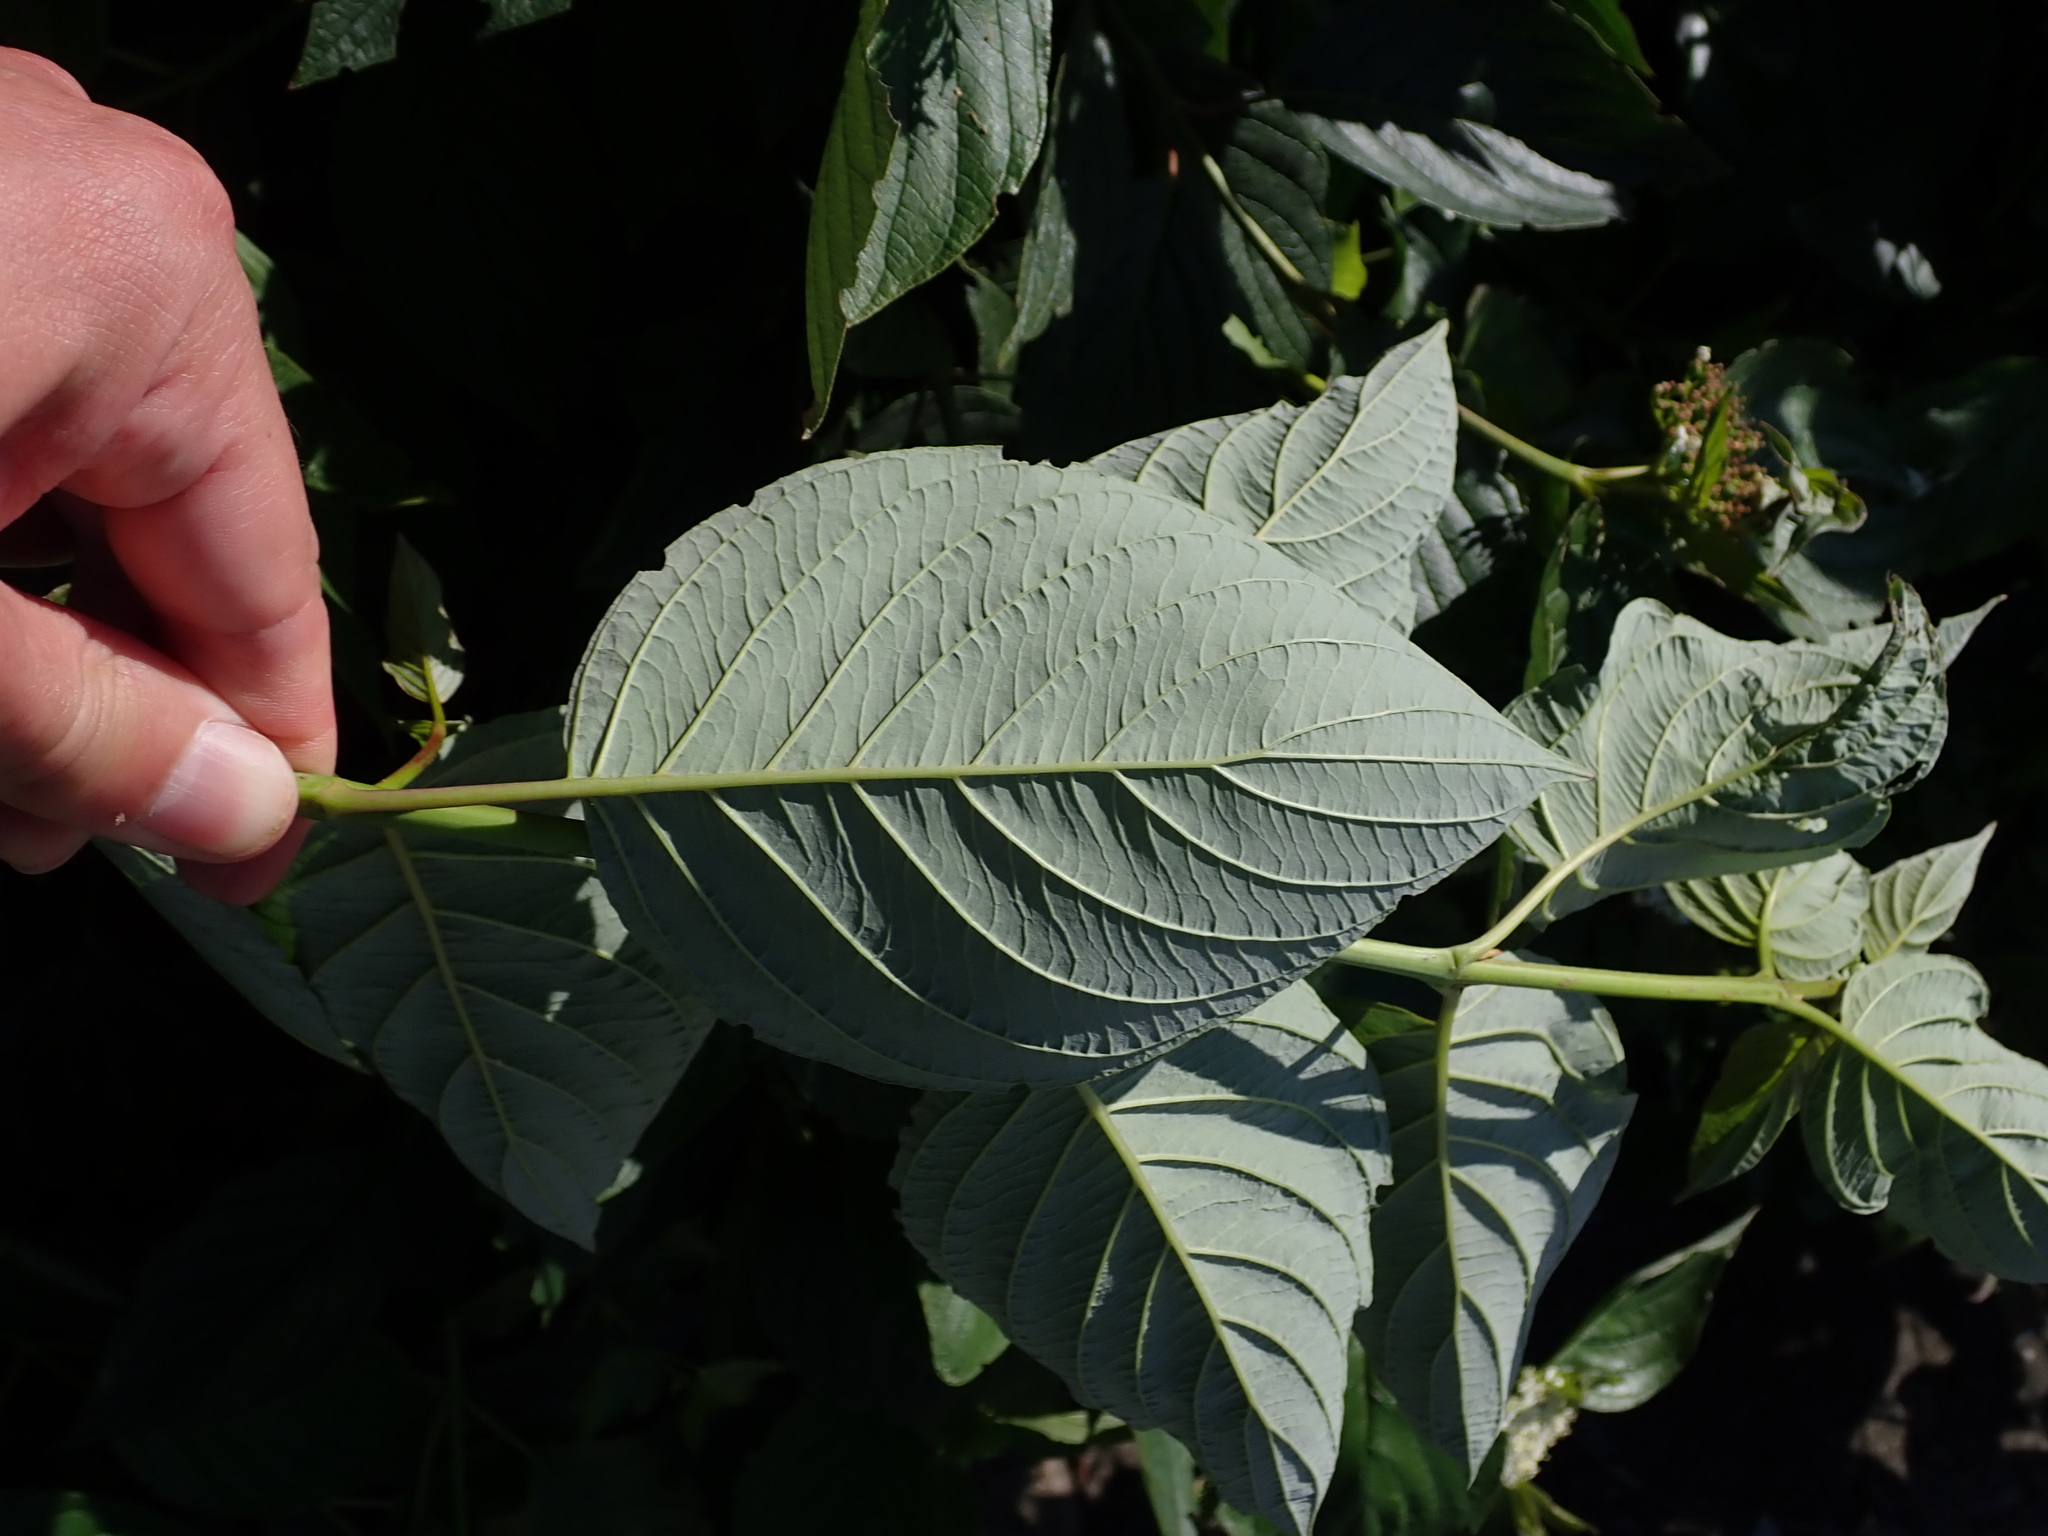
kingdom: Plantae
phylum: Tracheophyta
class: Magnoliopsida
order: Cornales
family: Cornaceae
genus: Cornus
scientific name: Cornus sericea
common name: Red-osier dogwood
